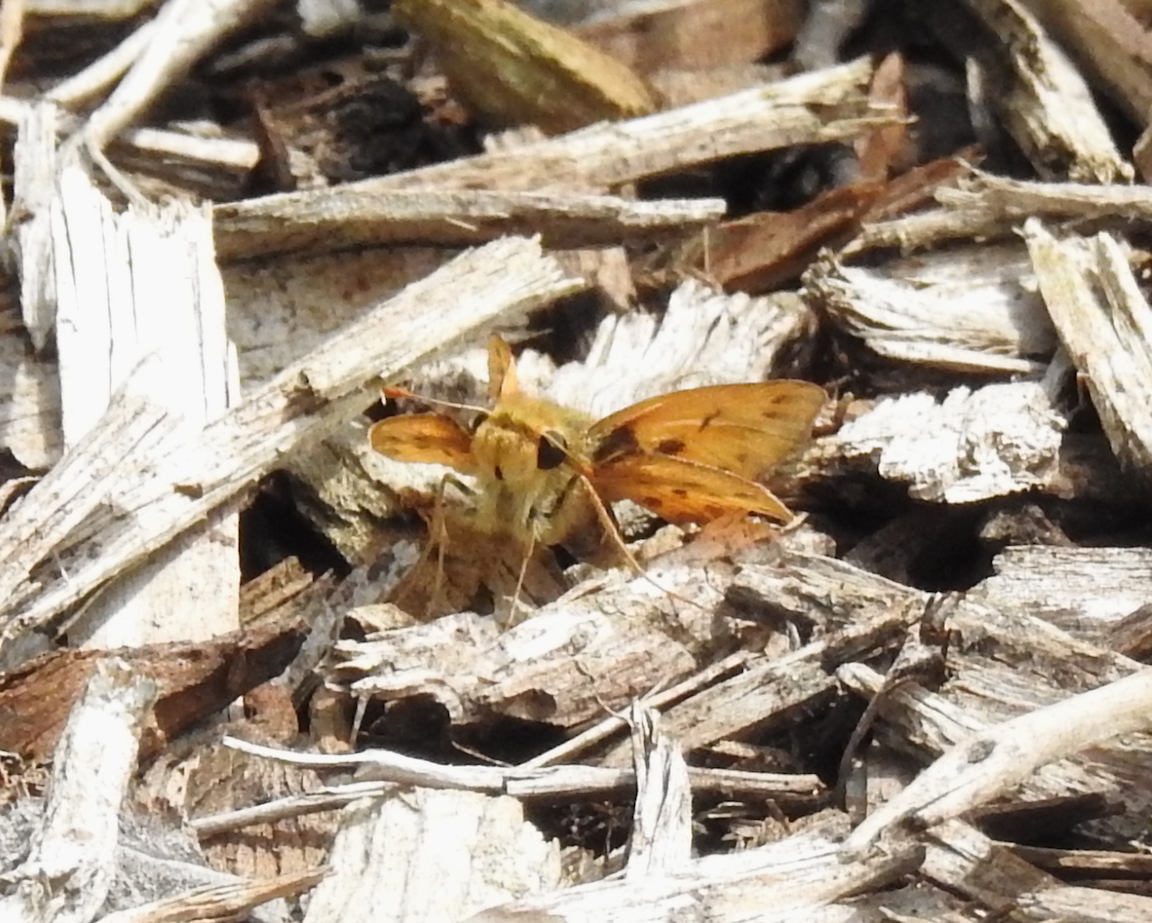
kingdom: Animalia
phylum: Arthropoda
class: Insecta
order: Lepidoptera
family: Hesperiidae
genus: Hylephila
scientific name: Hylephila phyleus
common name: Fiery skipper
